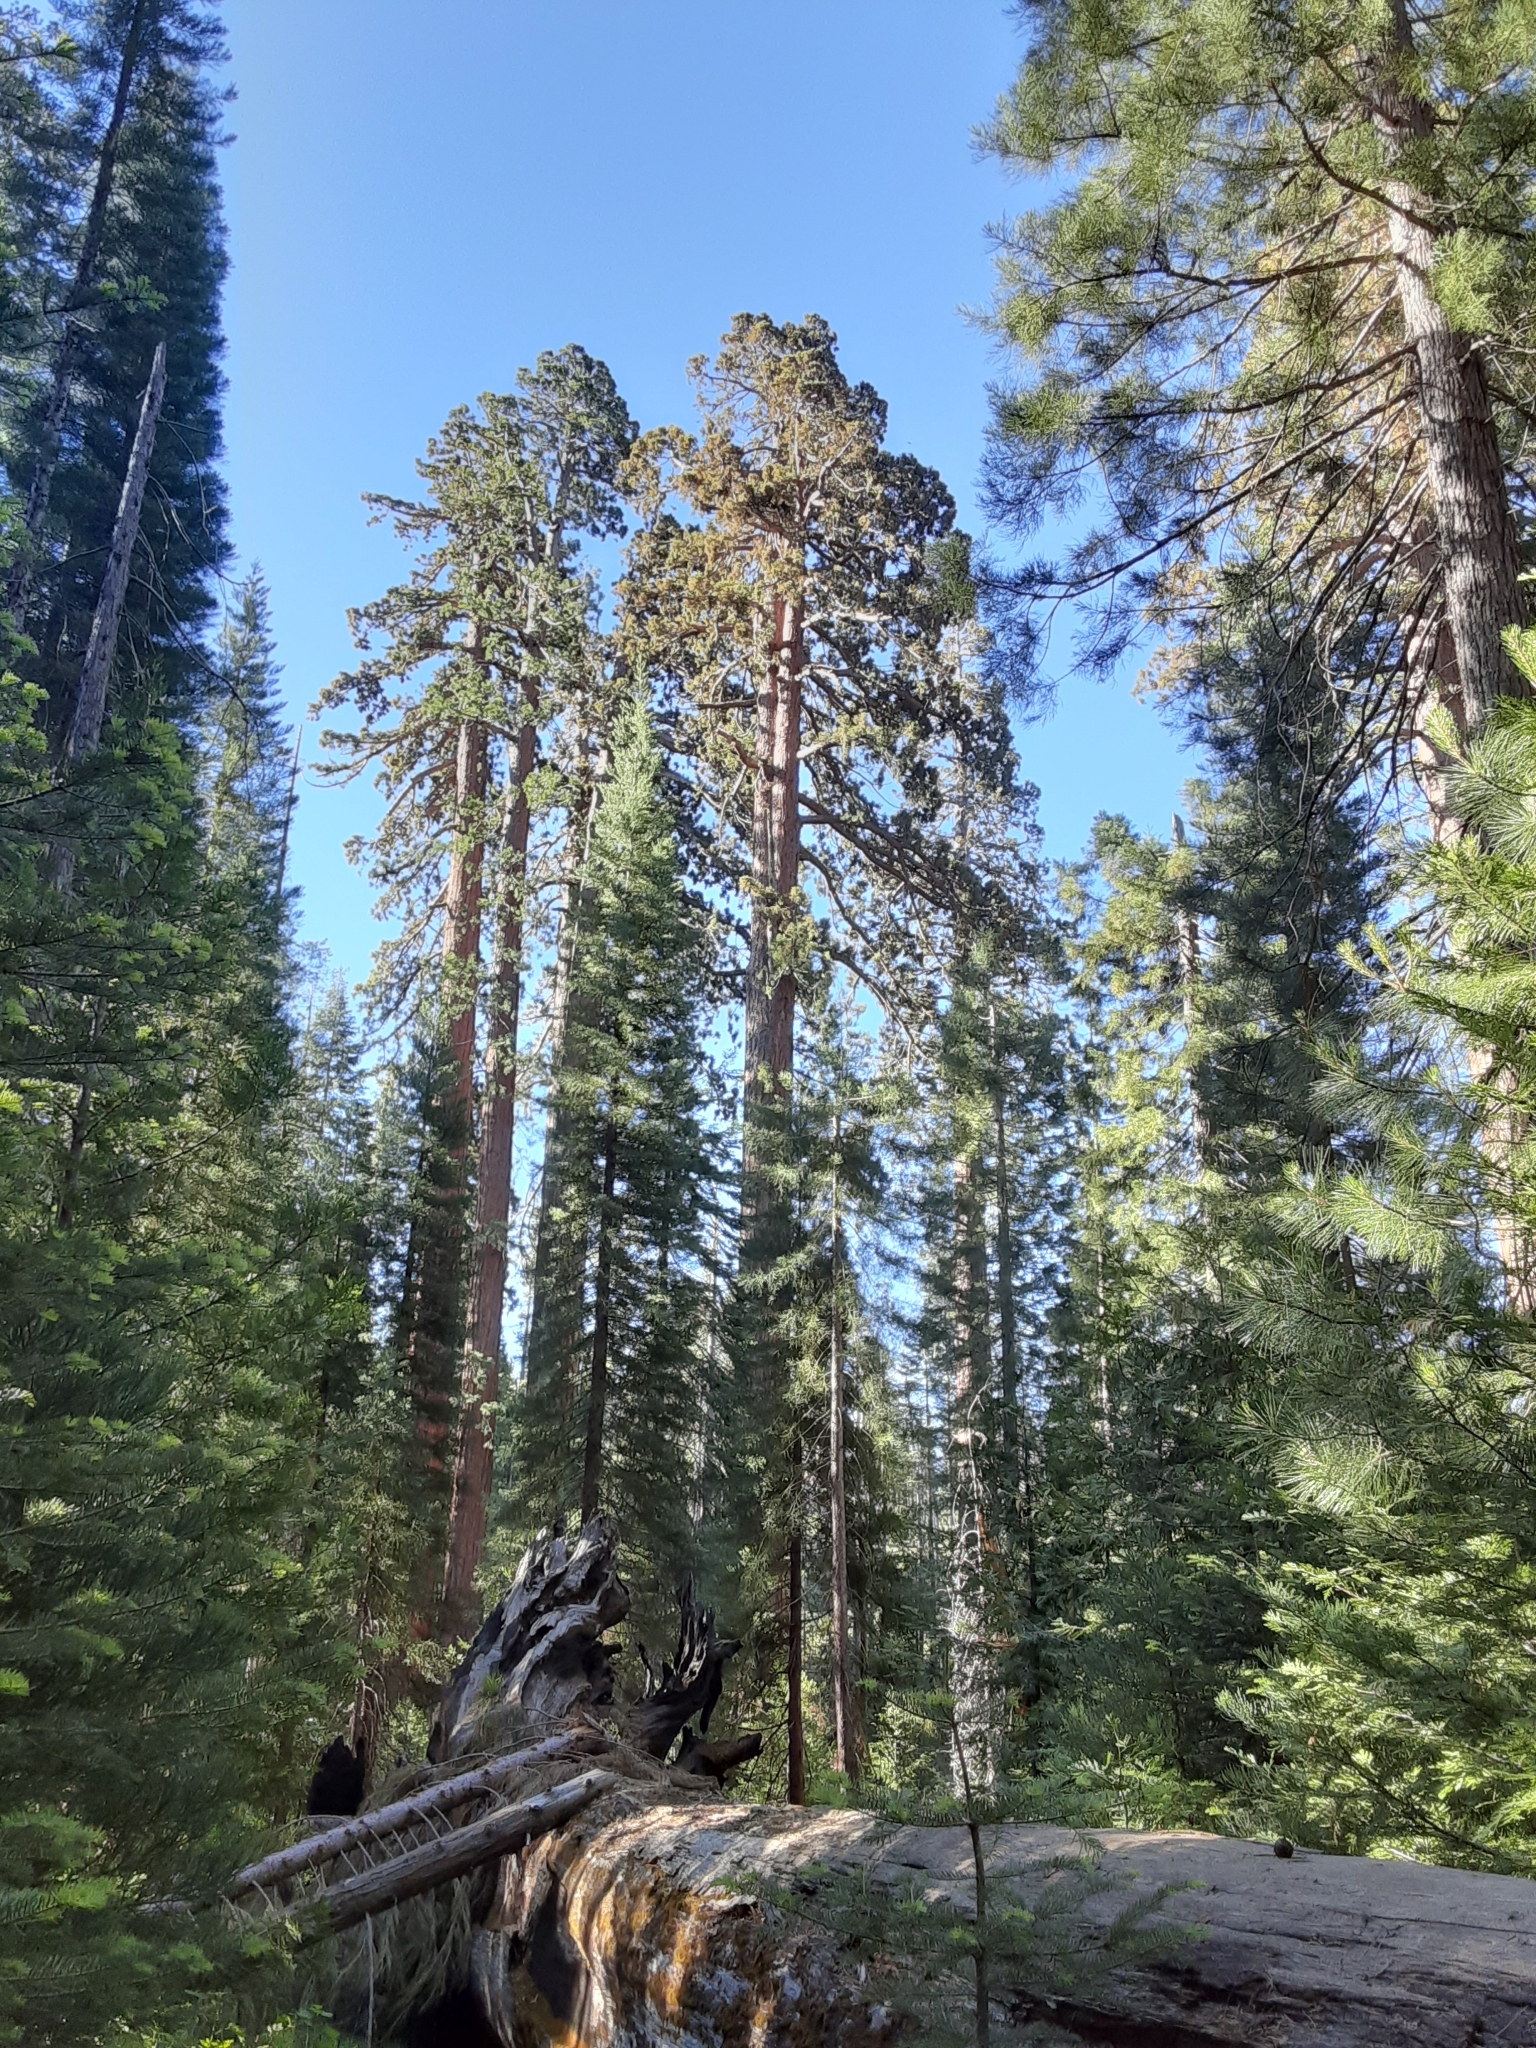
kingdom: Plantae
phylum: Tracheophyta
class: Pinopsida
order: Pinales
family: Cupressaceae
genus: Sequoiadendron
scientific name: Sequoiadendron giganteum
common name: Wellingtonia
